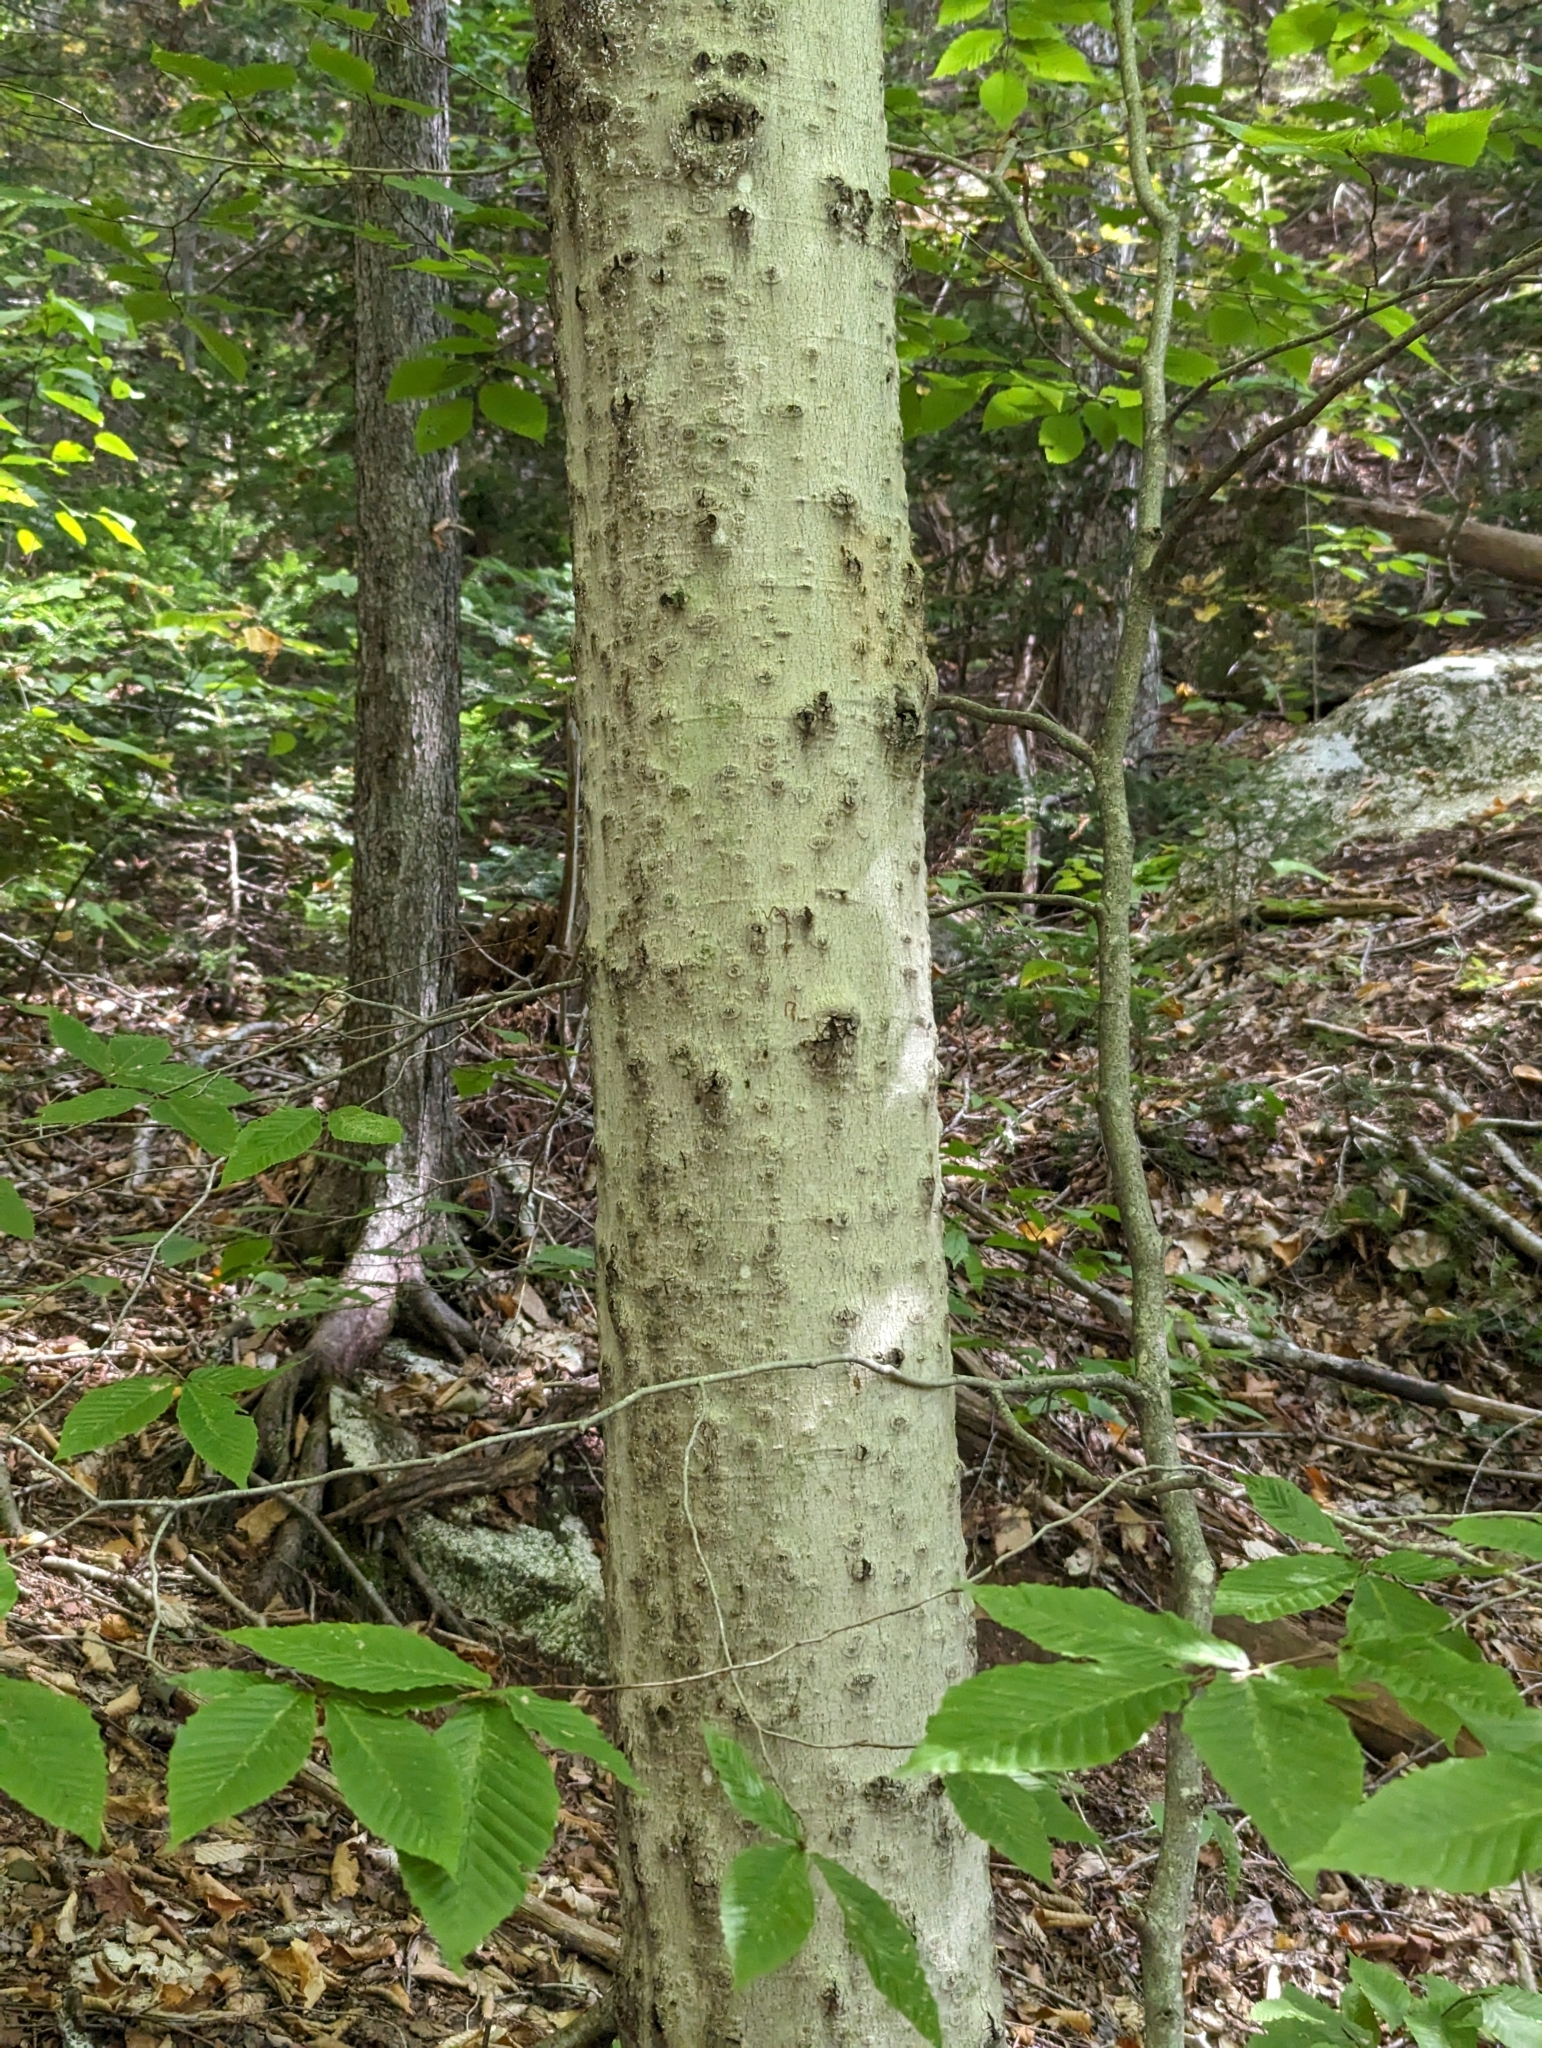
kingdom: Fungi
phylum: Ascomycota
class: Sordariomycetes
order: Hypocreales
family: Nectriaceae
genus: Neonectria
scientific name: Neonectria faginata
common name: Beech bark canker
